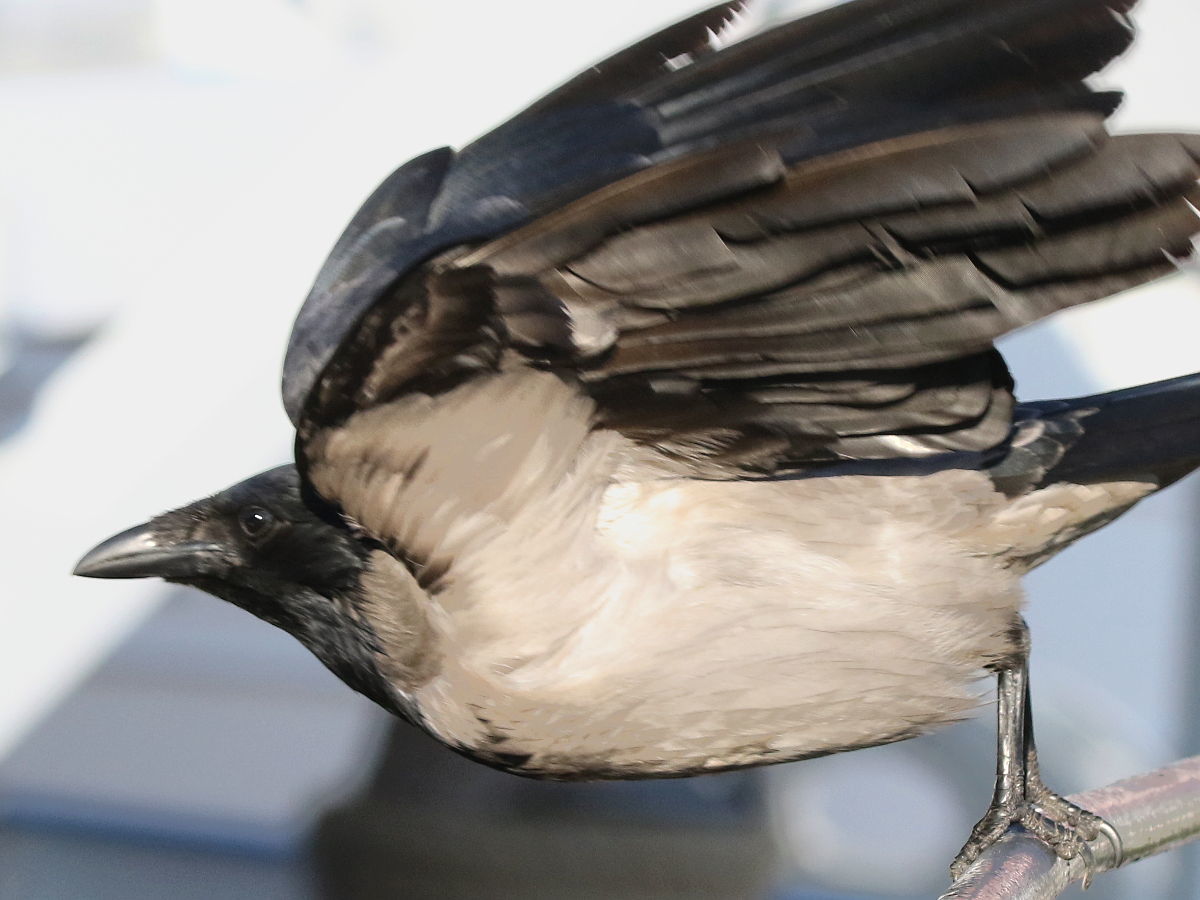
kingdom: Animalia
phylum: Chordata
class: Aves
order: Passeriformes
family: Corvidae
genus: Corvus
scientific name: Corvus cornix
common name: Hooded crow
